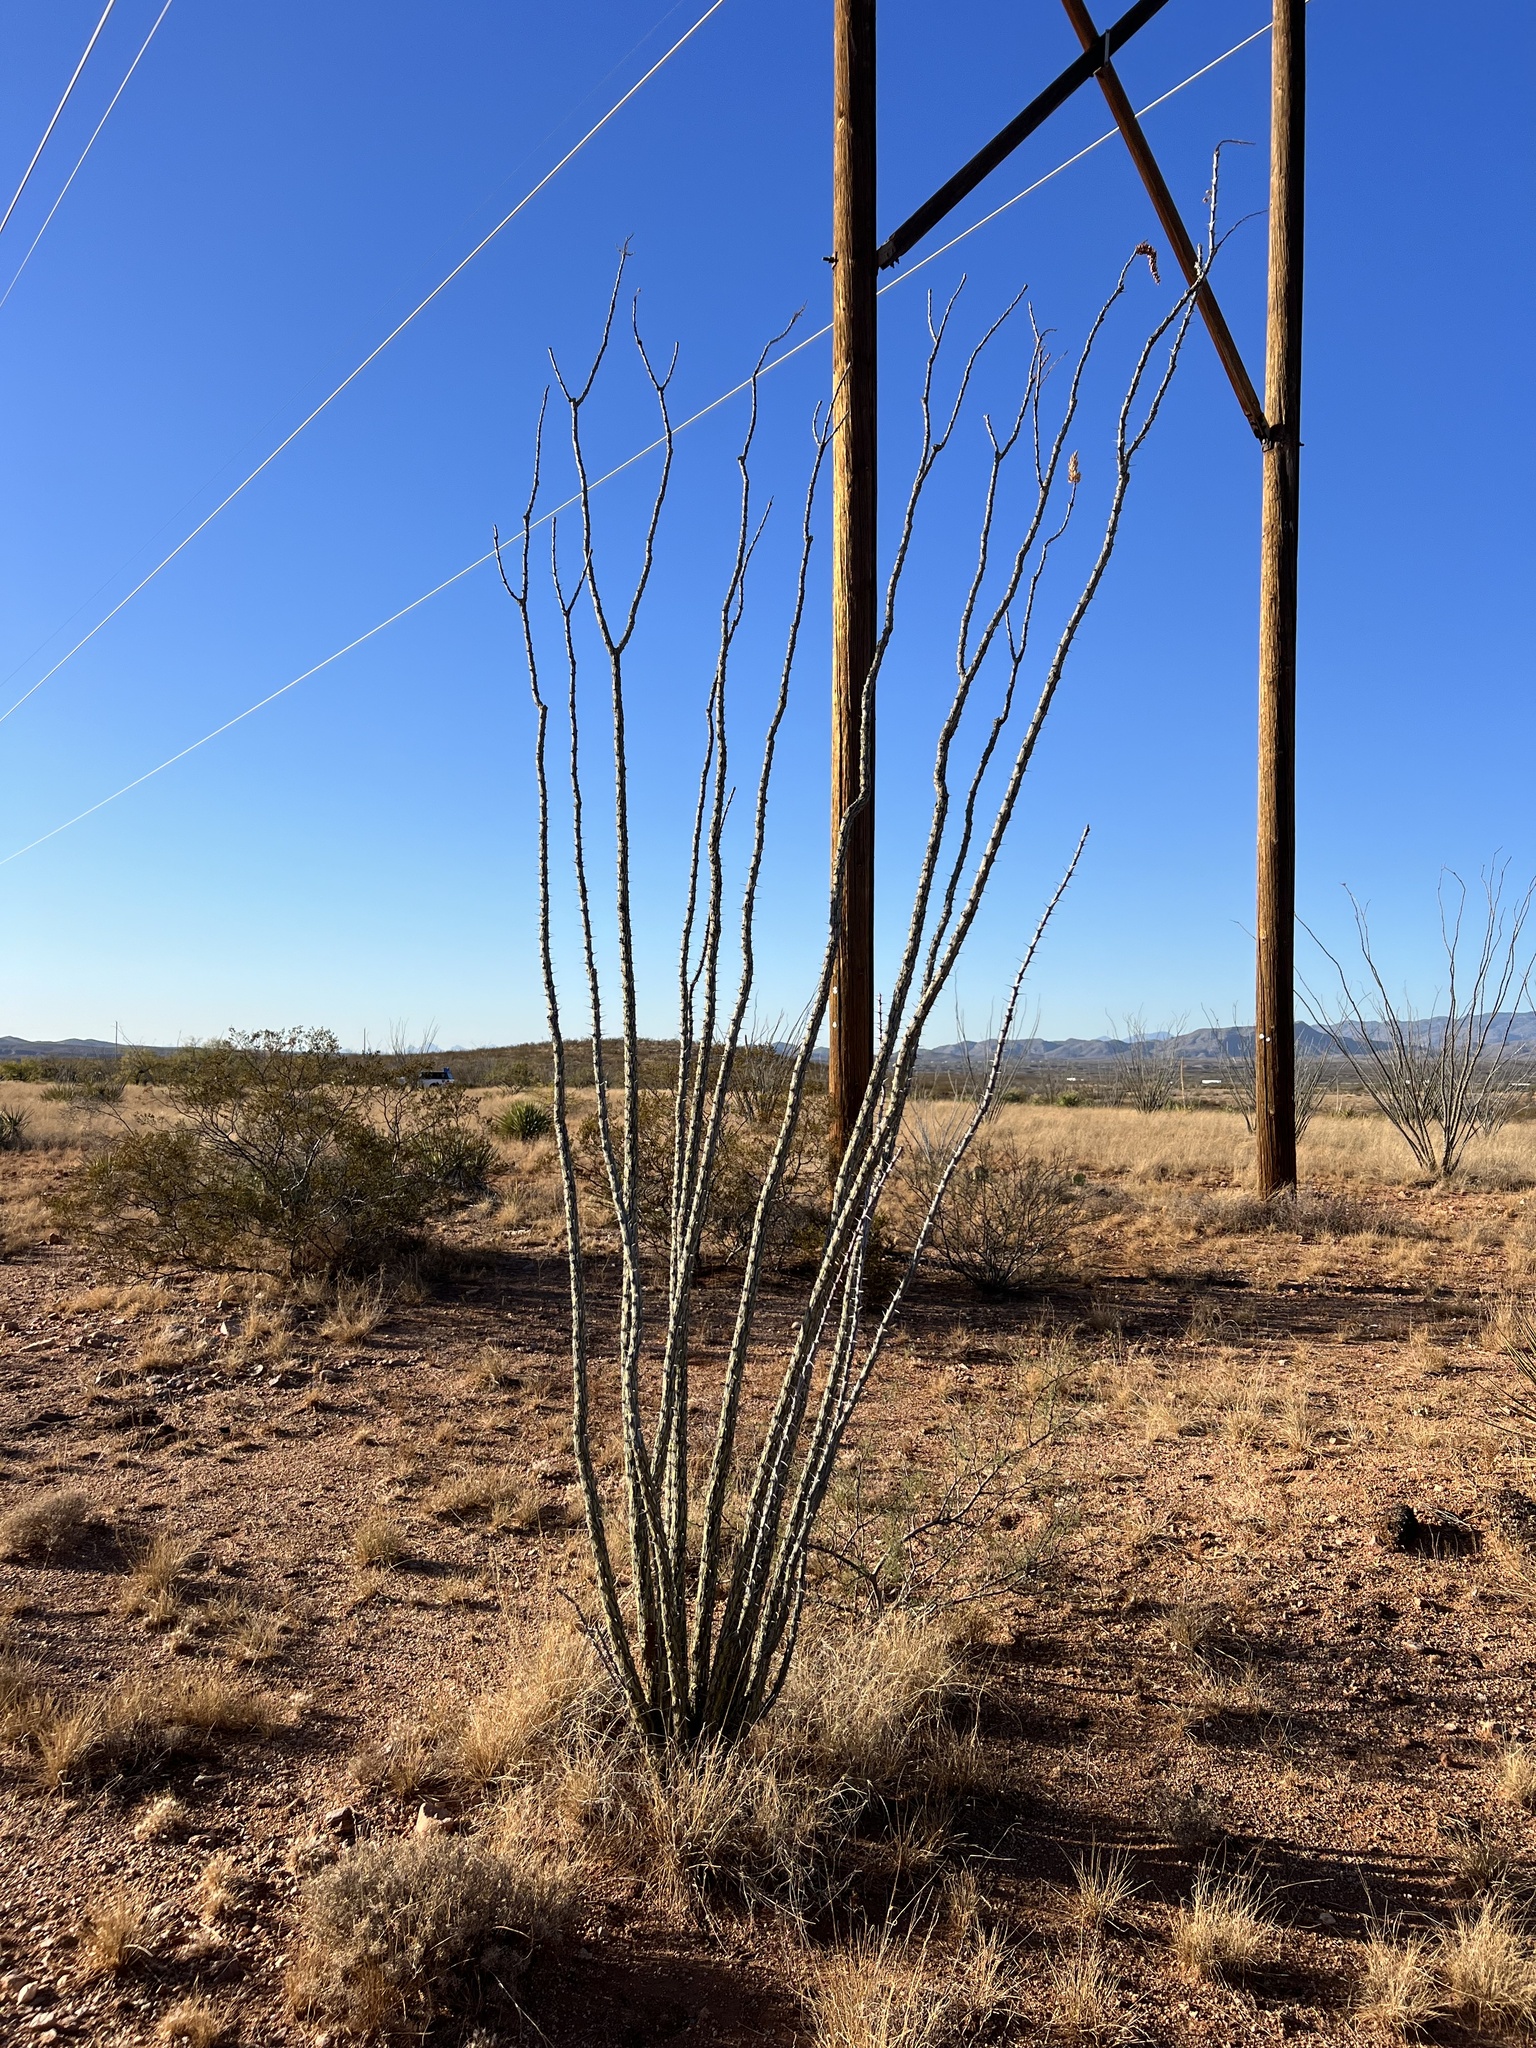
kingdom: Plantae
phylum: Tracheophyta
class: Magnoliopsida
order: Ericales
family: Fouquieriaceae
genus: Fouquieria
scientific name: Fouquieria splendens
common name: Vine-cactus
